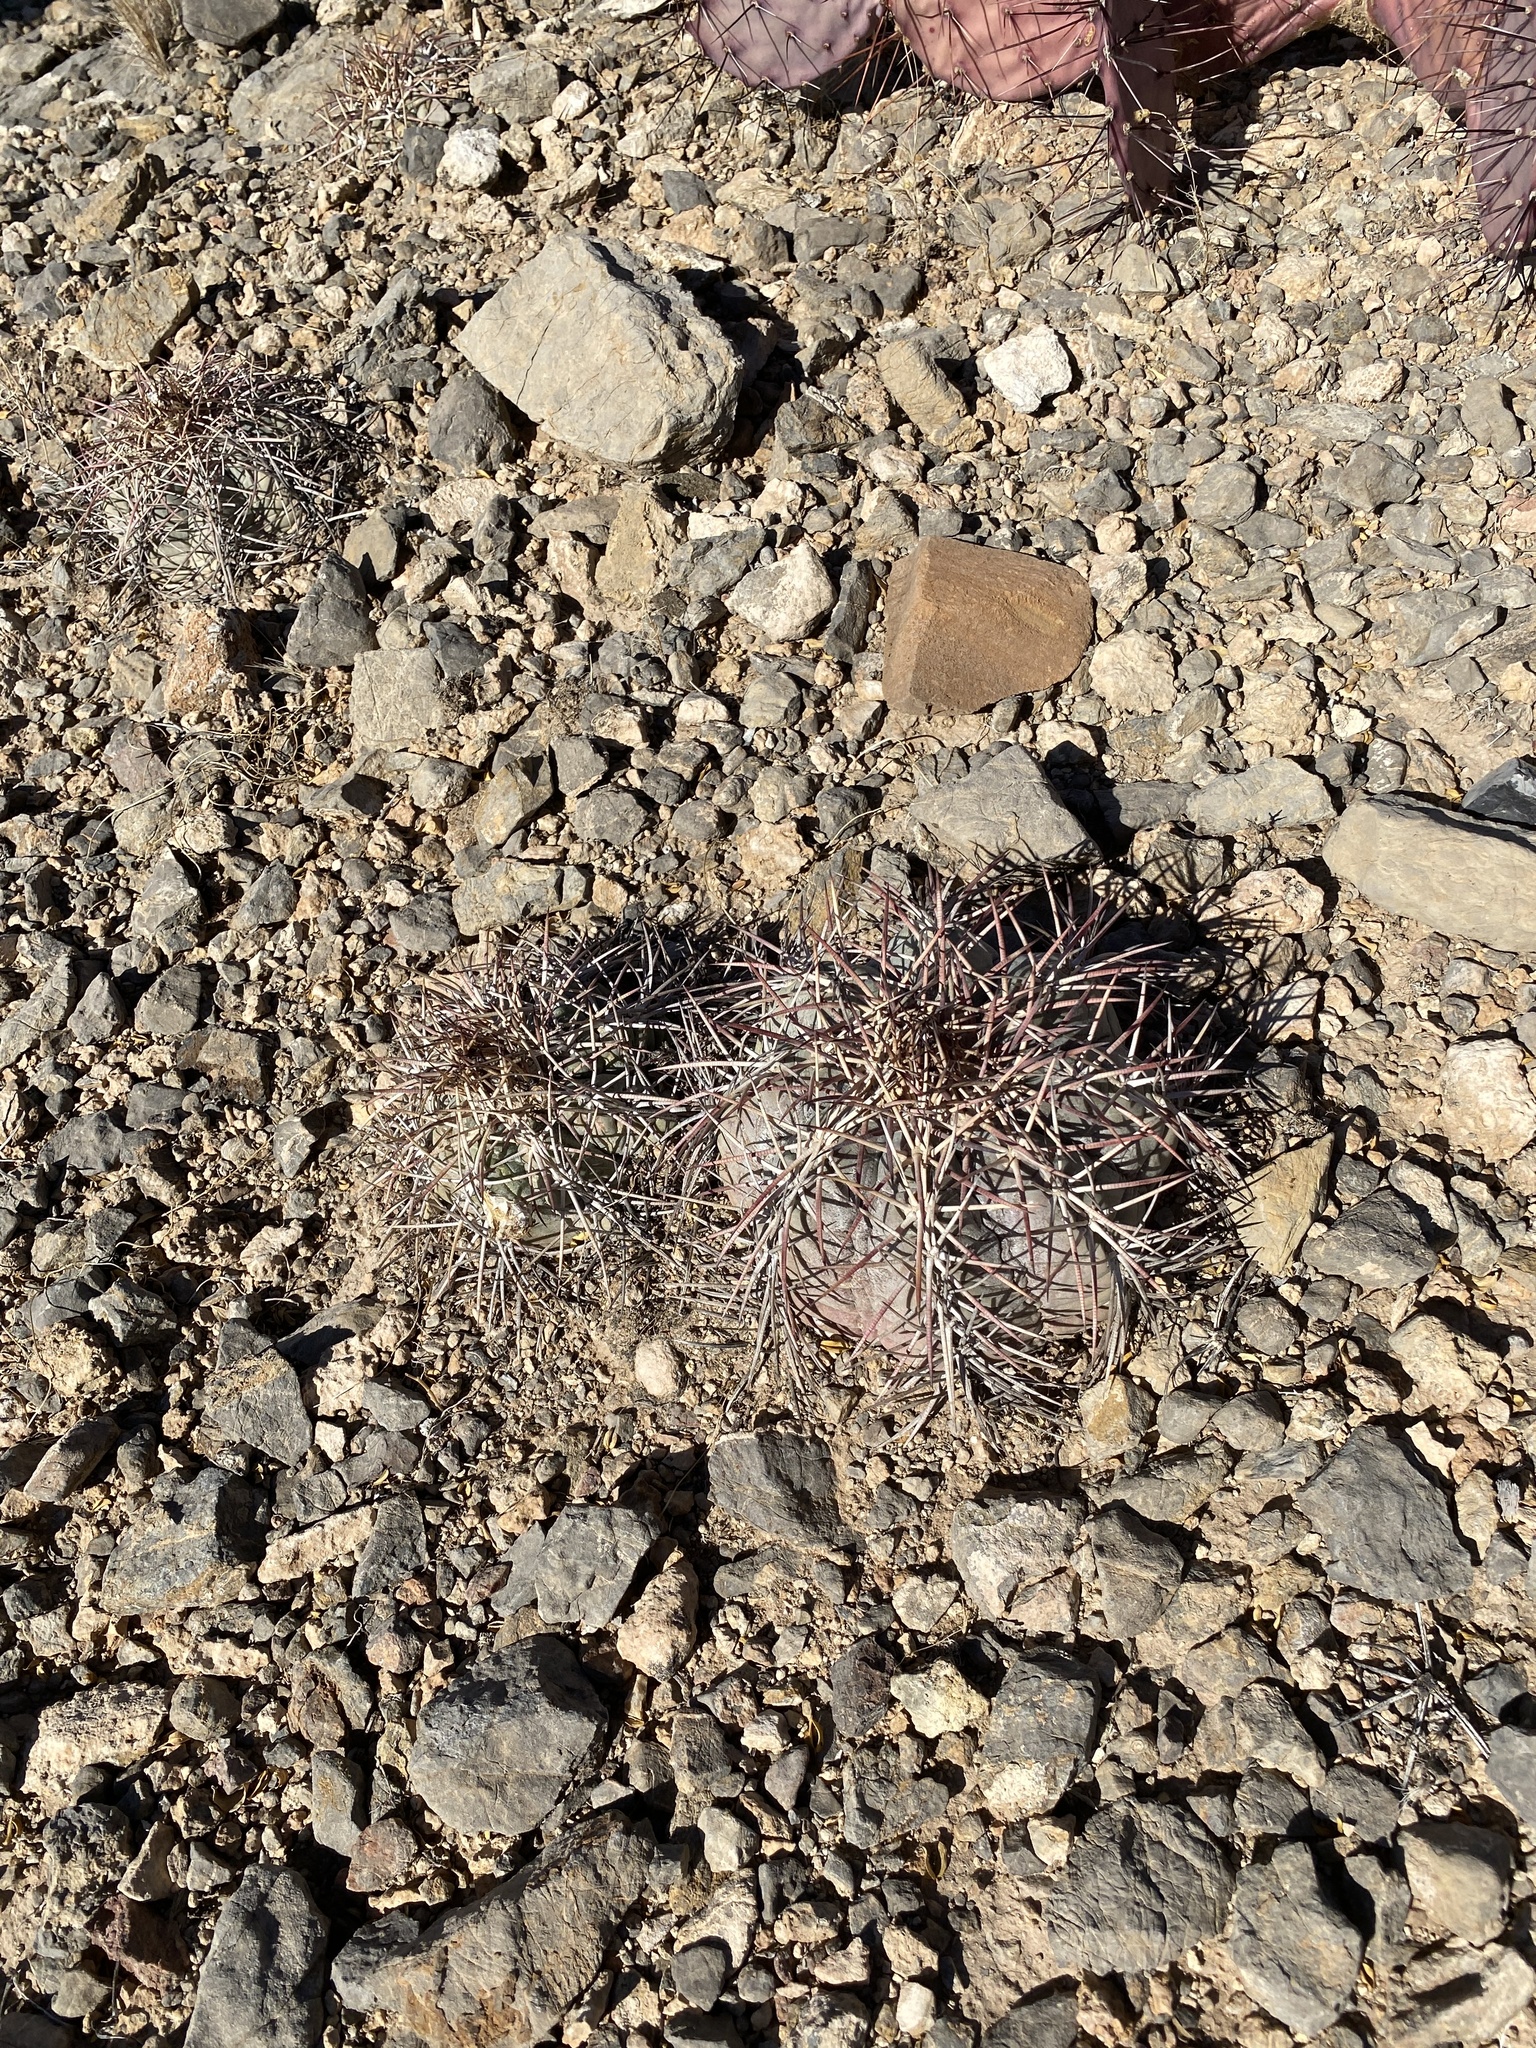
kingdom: Plantae
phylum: Tracheophyta
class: Magnoliopsida
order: Caryophyllales
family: Cactaceae
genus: Echinocactus
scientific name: Echinocactus horizonthalonius
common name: Devilshead
